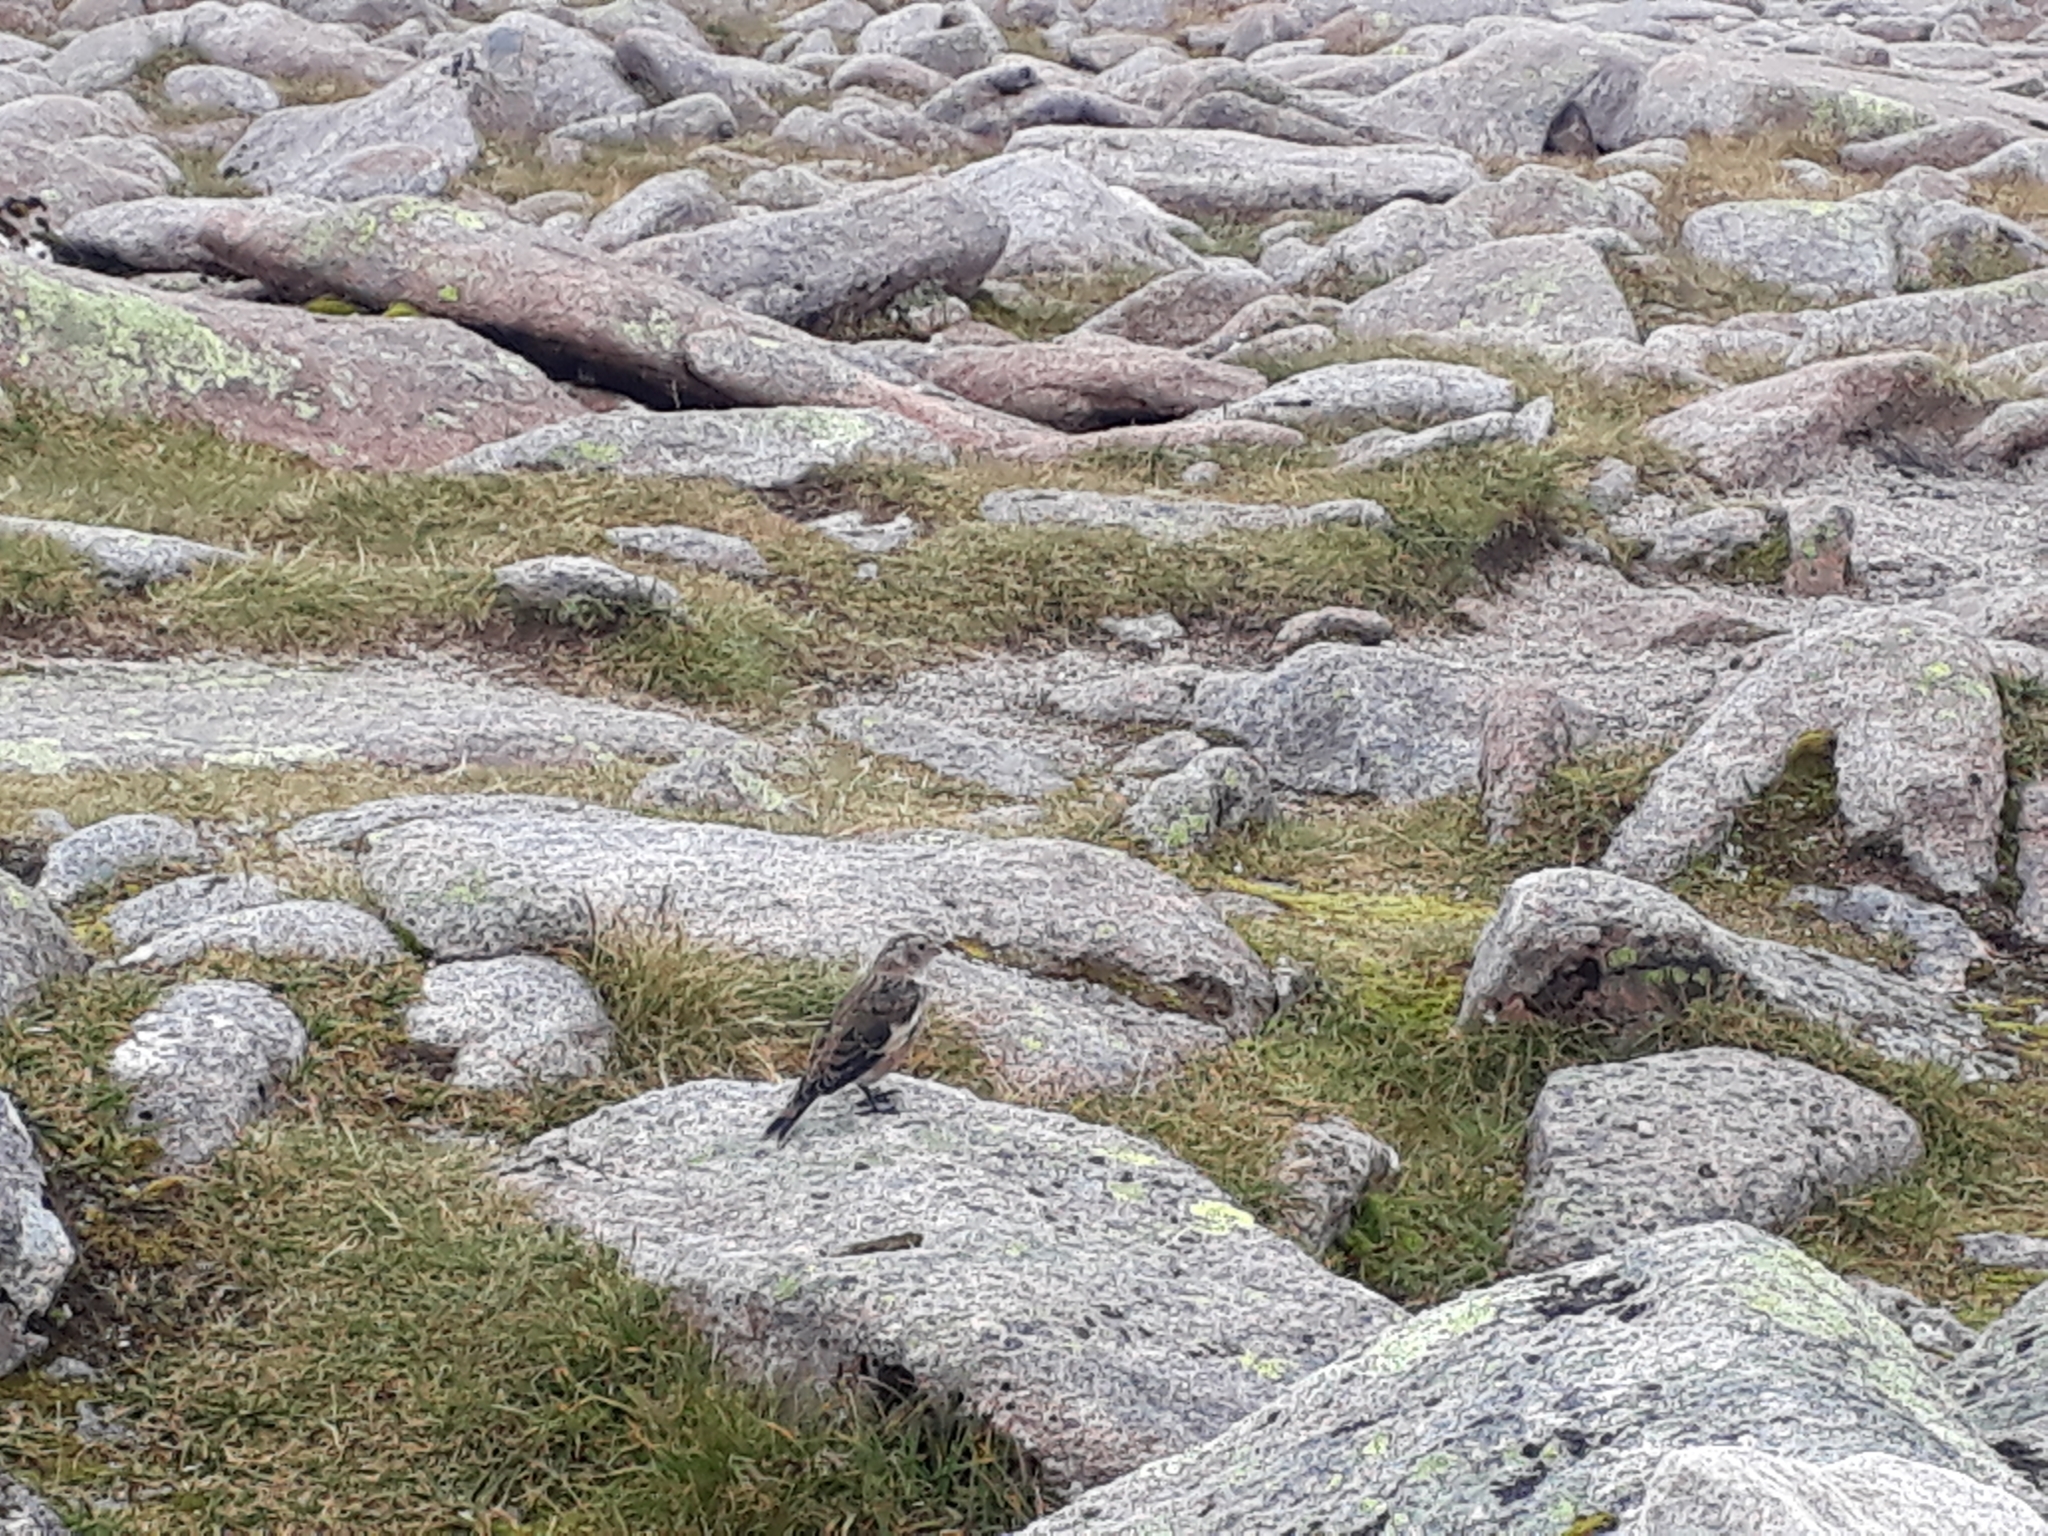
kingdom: Animalia
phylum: Chordata
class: Aves
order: Passeriformes
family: Calcariidae
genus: Plectrophenax
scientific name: Plectrophenax nivalis
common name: Snow bunting
